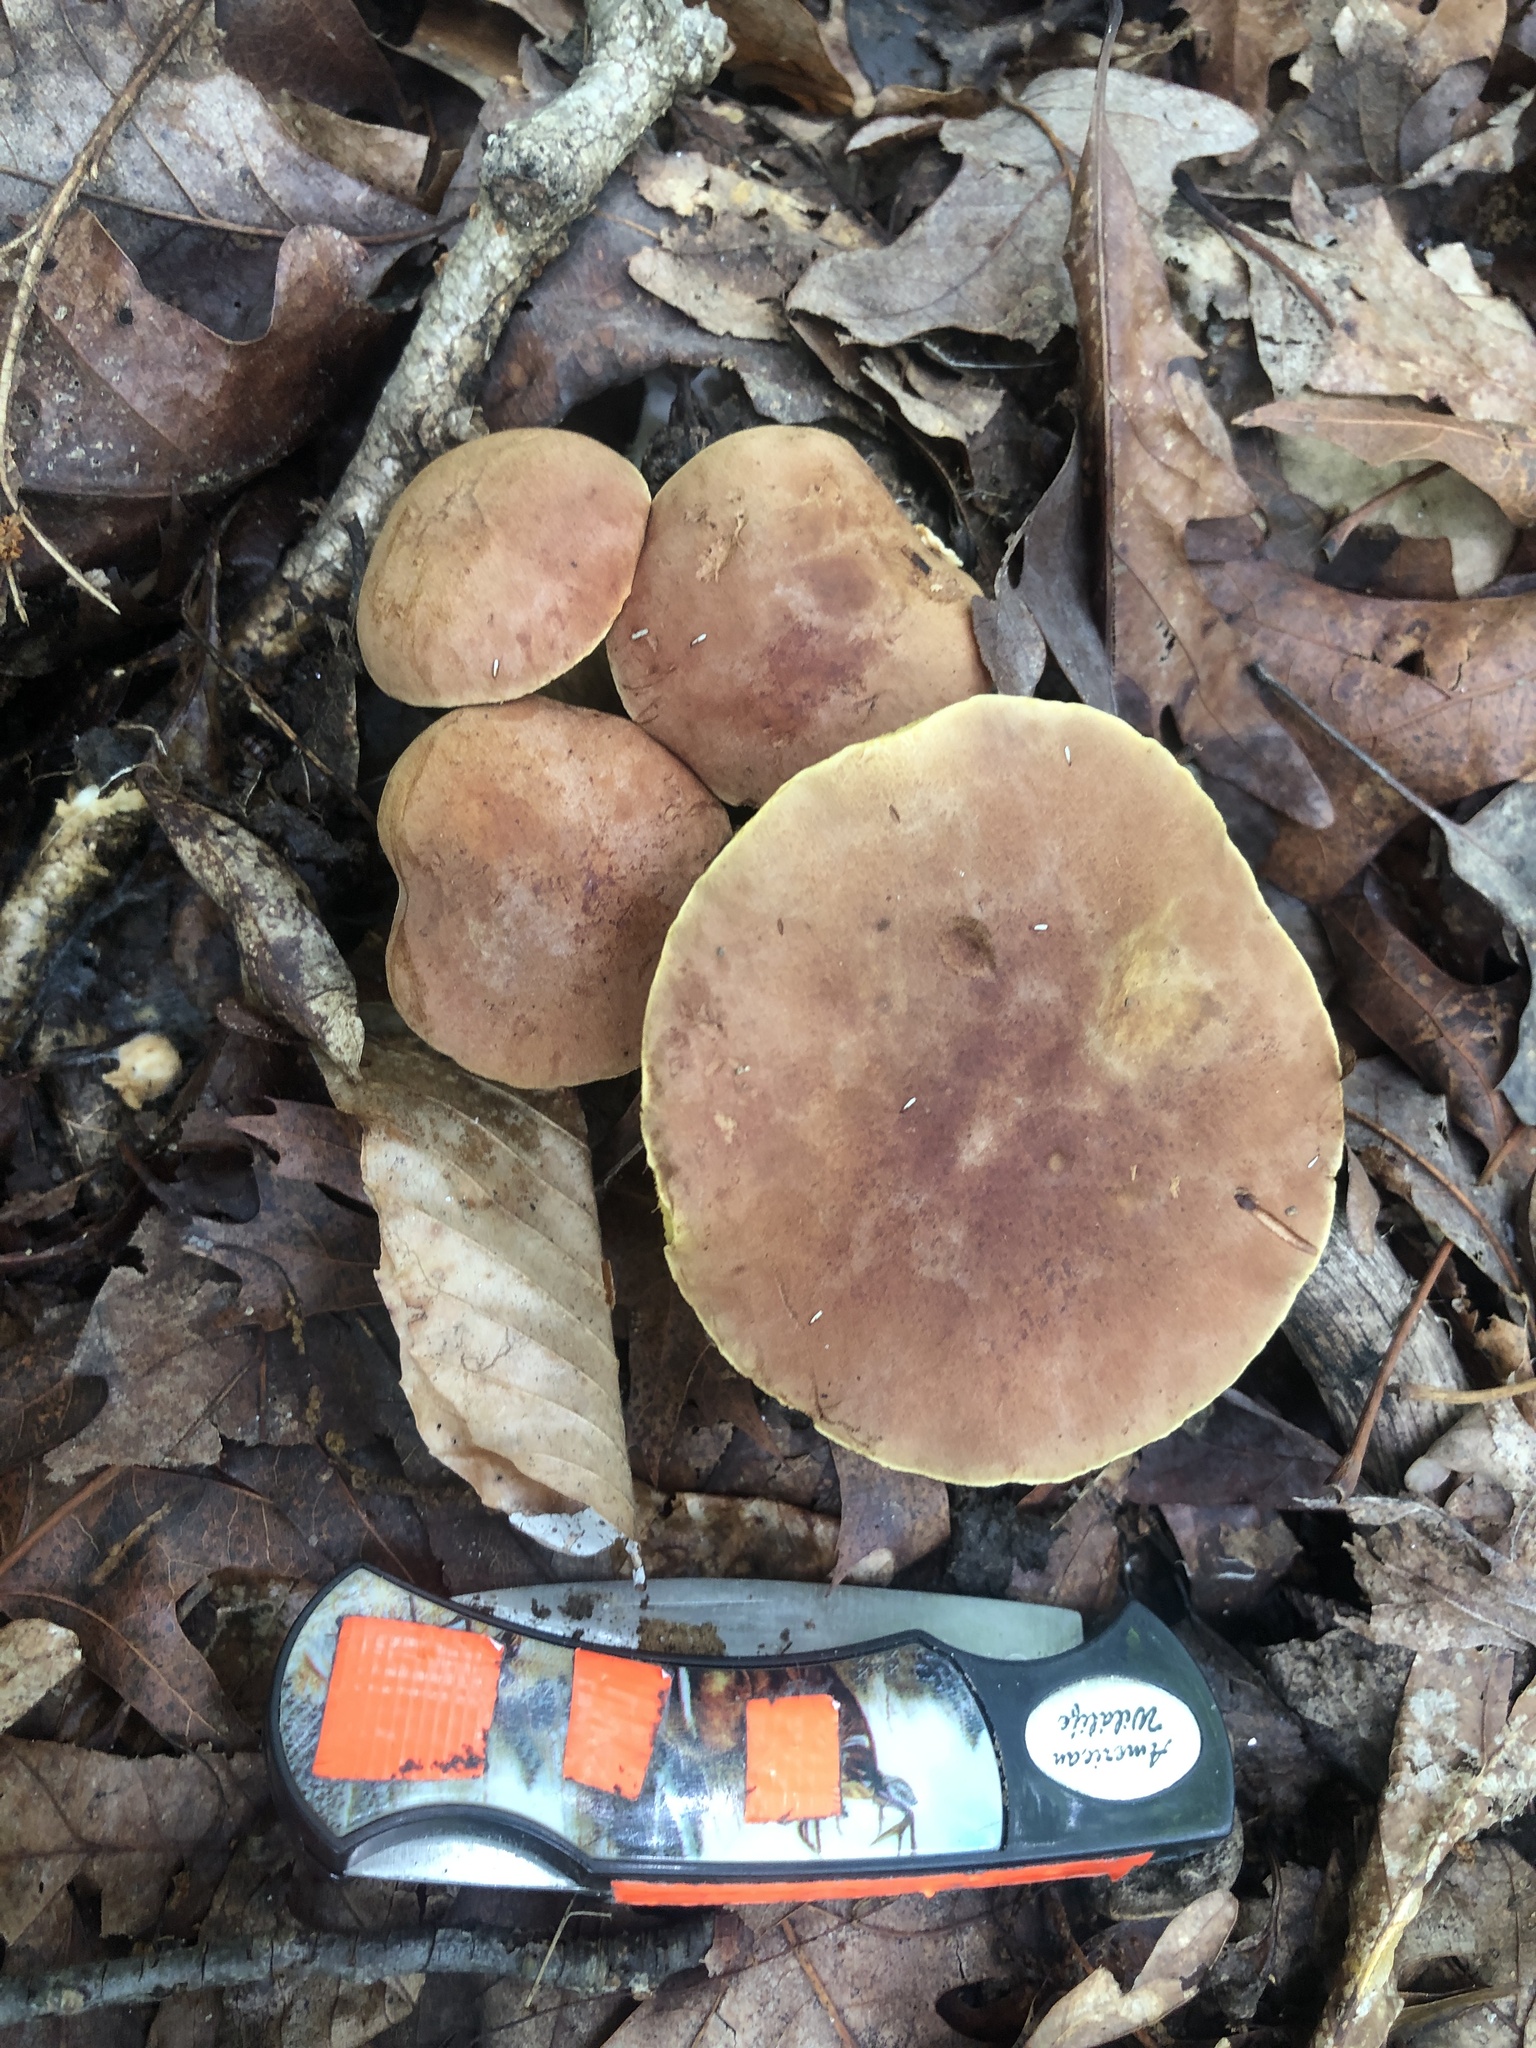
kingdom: Fungi
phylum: Basidiomycota
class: Agaricomycetes
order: Boletales
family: Boletaceae
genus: Aureoboletus
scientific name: Aureoboletus innixus
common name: Clustered brown bolete
